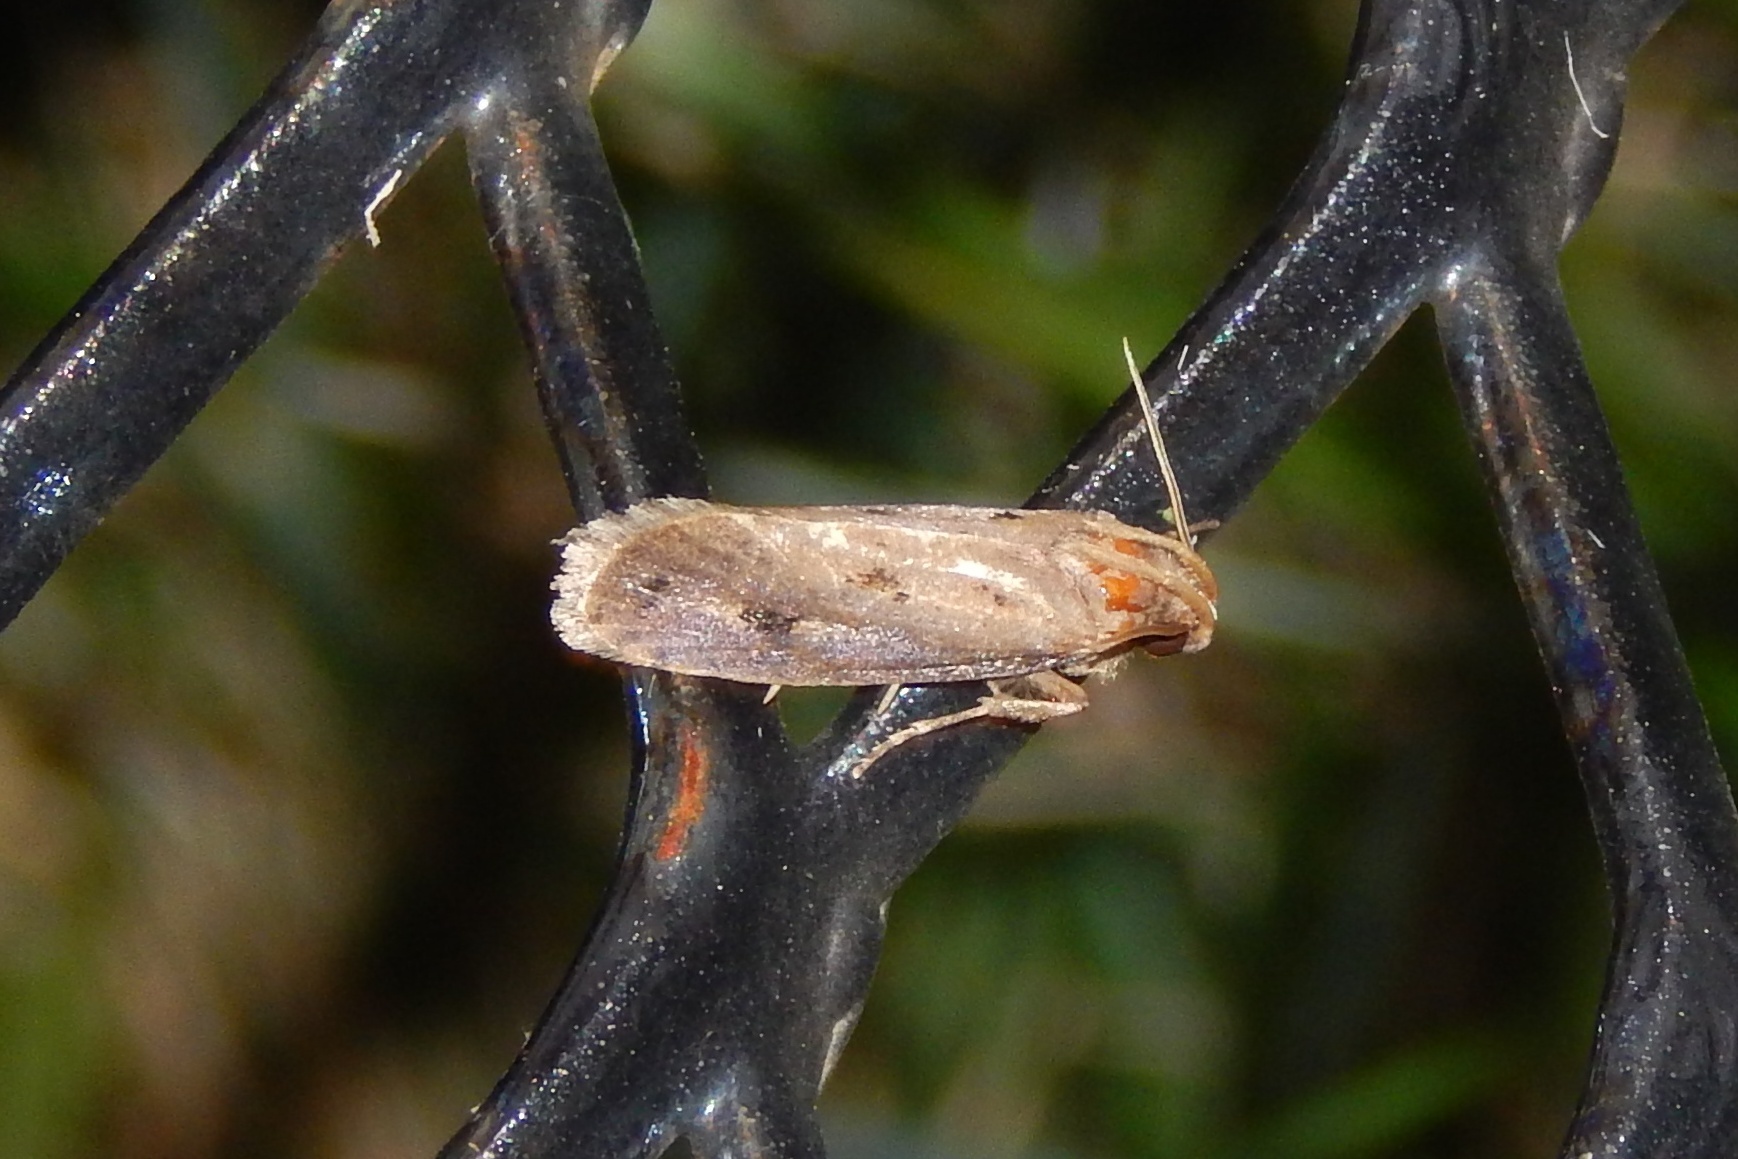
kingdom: Animalia
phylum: Arthropoda
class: Insecta
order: Lepidoptera
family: Tineidae
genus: Acrolophus
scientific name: Acrolophus
